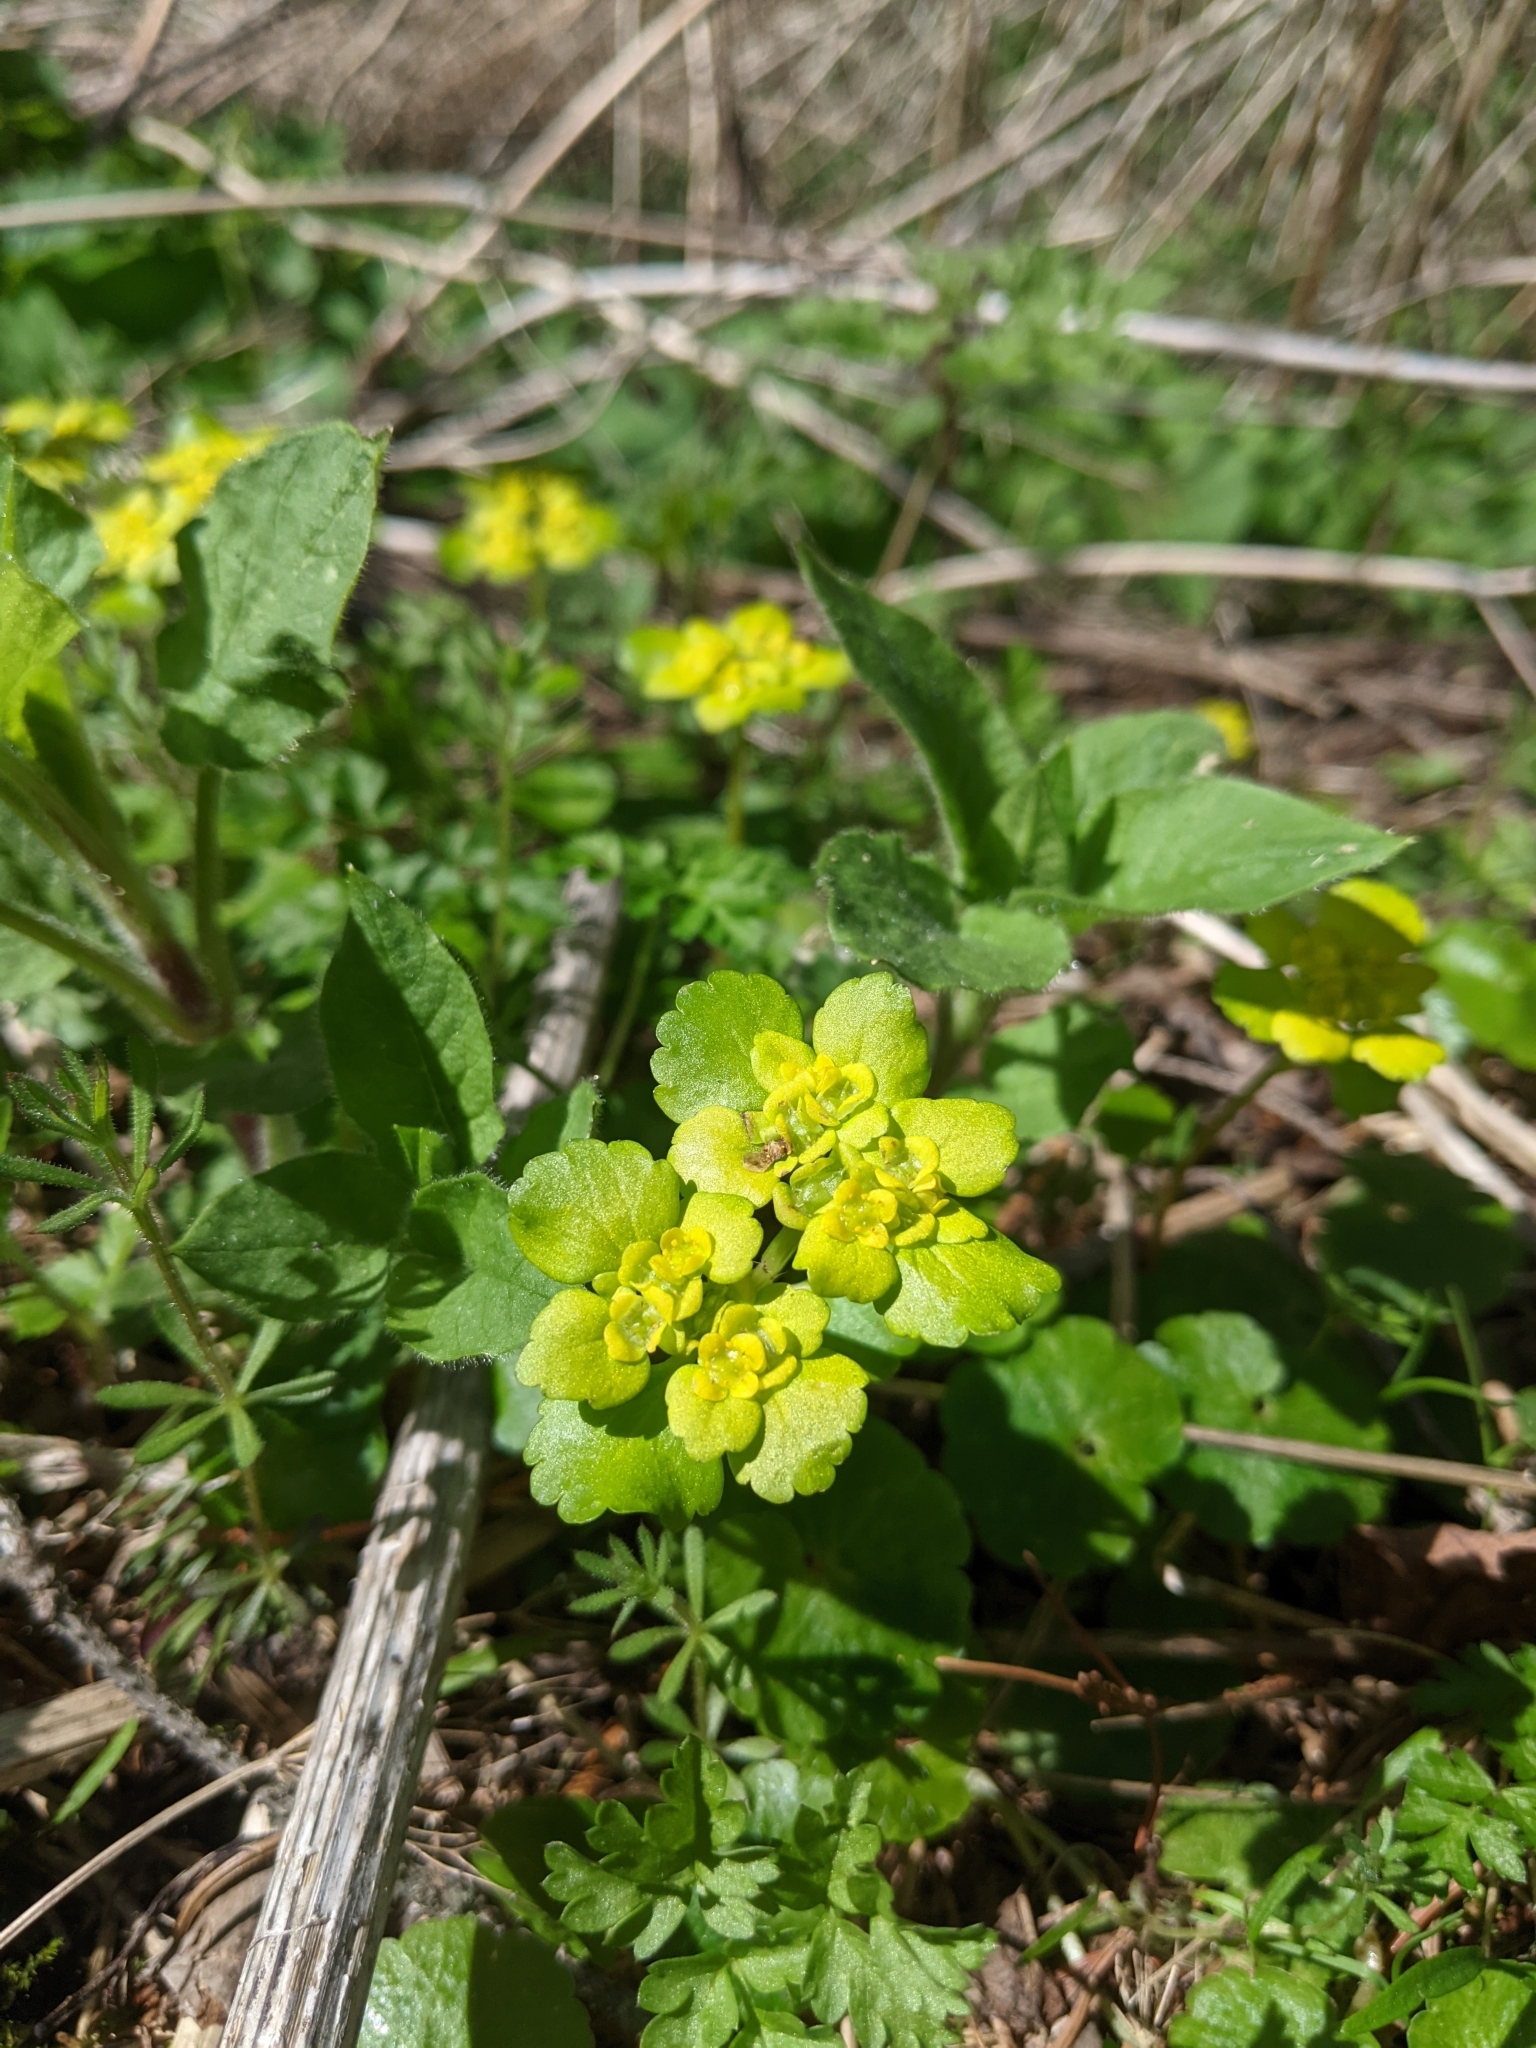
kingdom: Plantae
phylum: Tracheophyta
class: Magnoliopsida
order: Saxifragales
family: Saxifragaceae
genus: Chrysosplenium
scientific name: Chrysosplenium alternifolium
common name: Alternate-leaved golden-saxifrage
